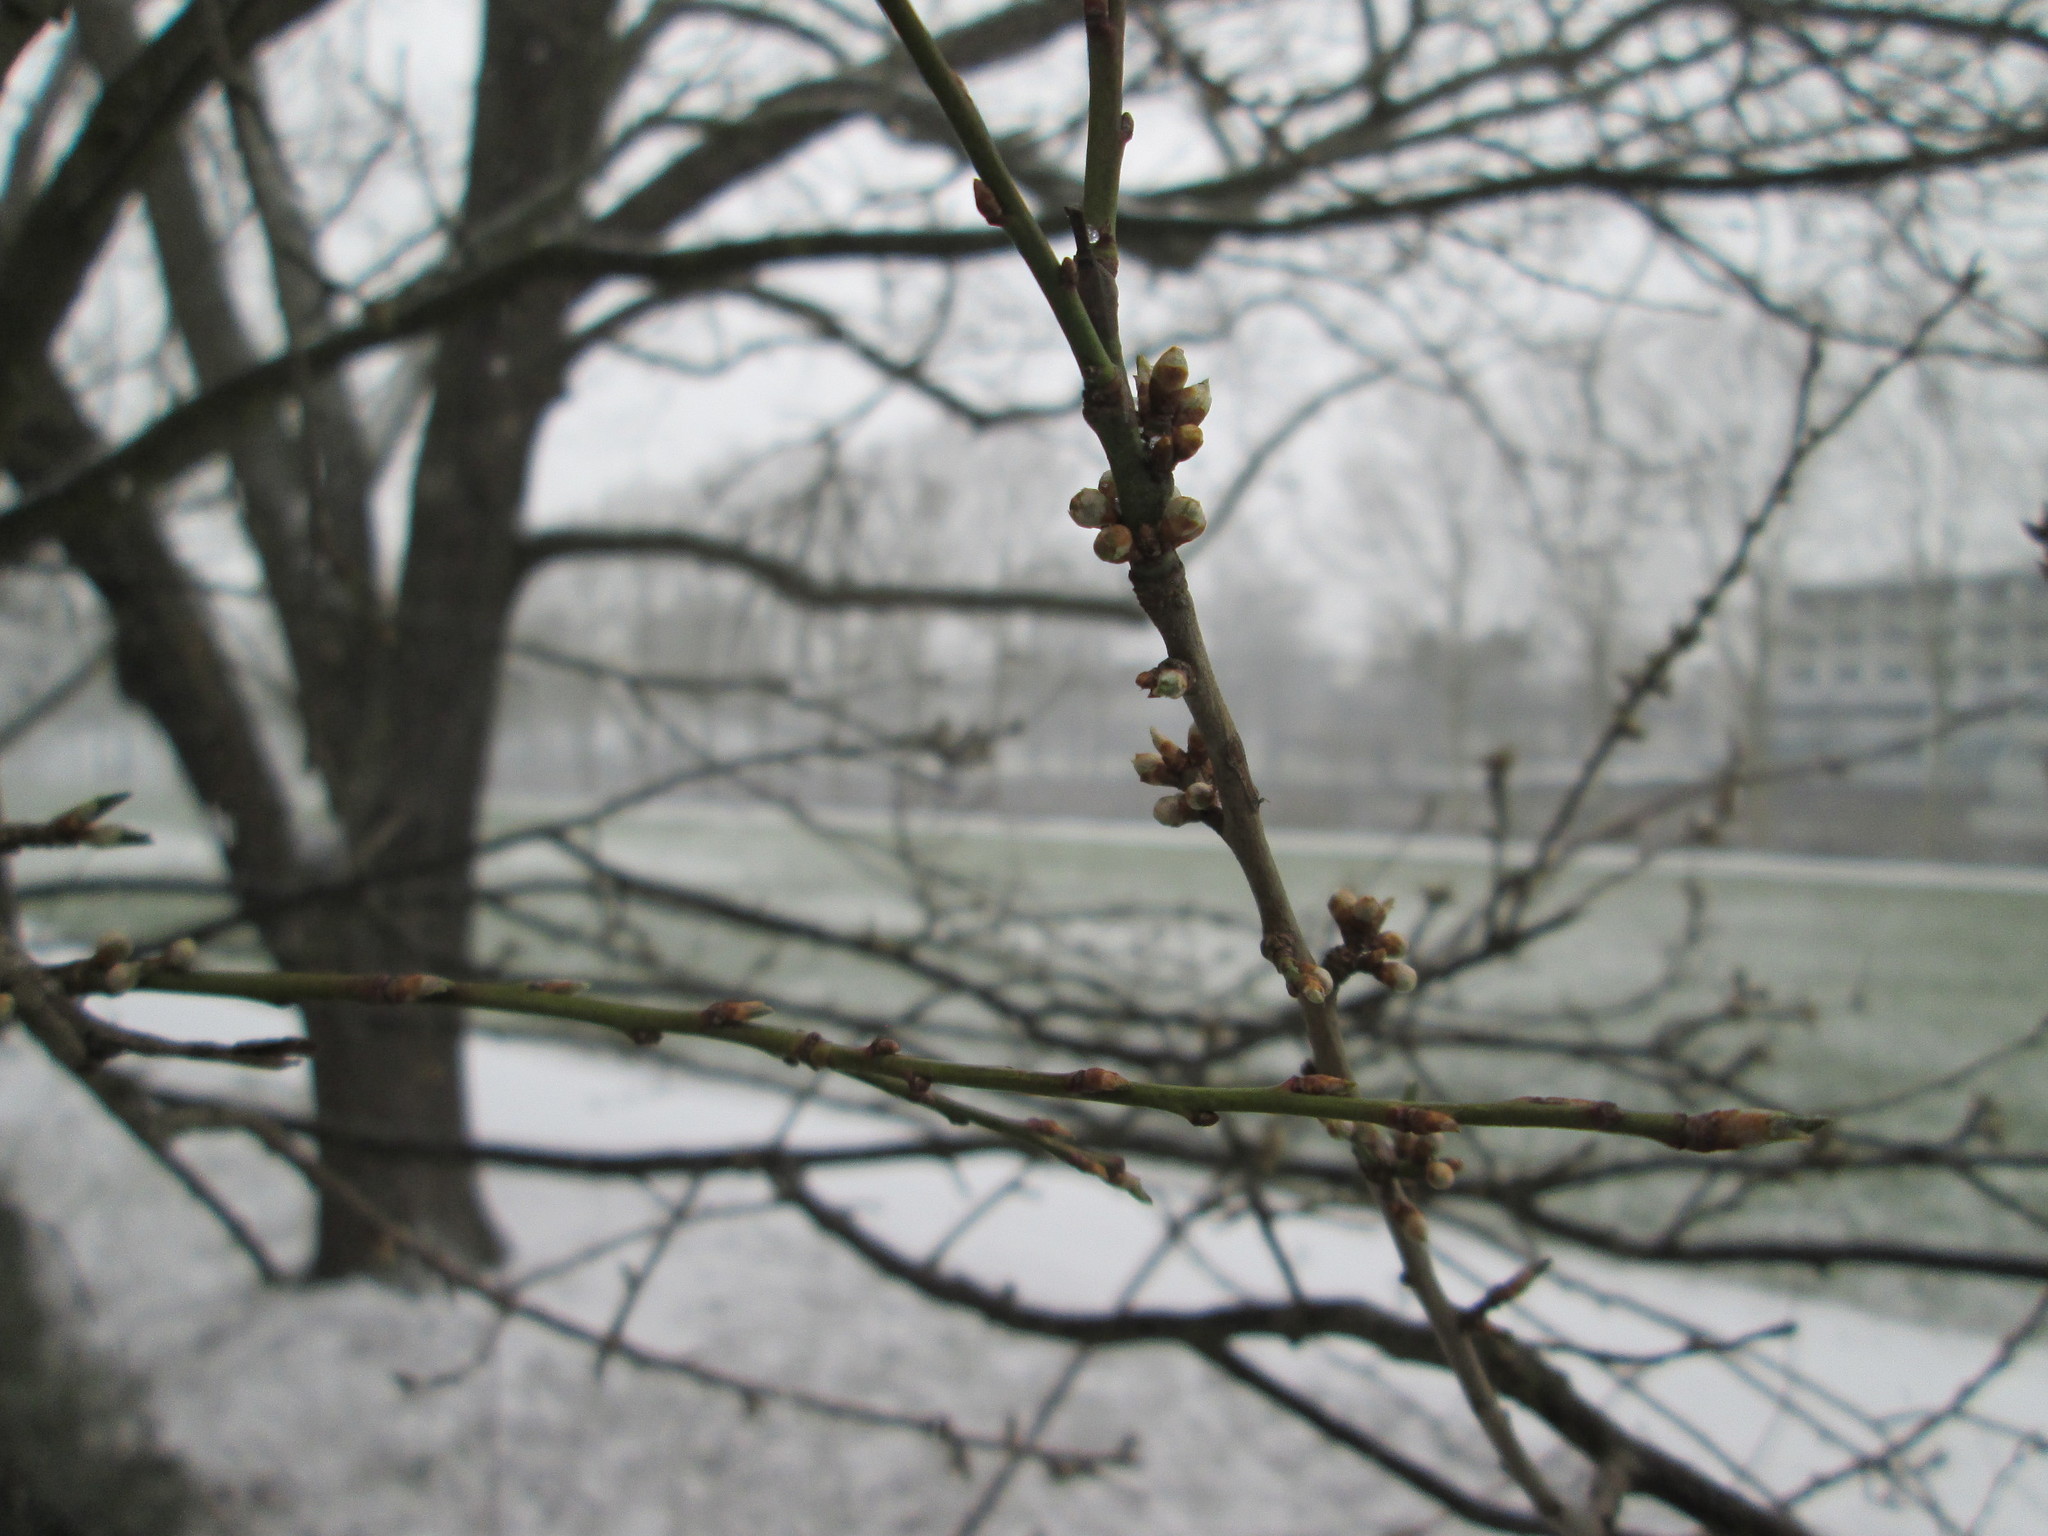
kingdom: Plantae
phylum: Tracheophyta
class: Magnoliopsida
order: Rosales
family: Rosaceae
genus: Prunus
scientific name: Prunus cerasifera
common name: Cherry plum
